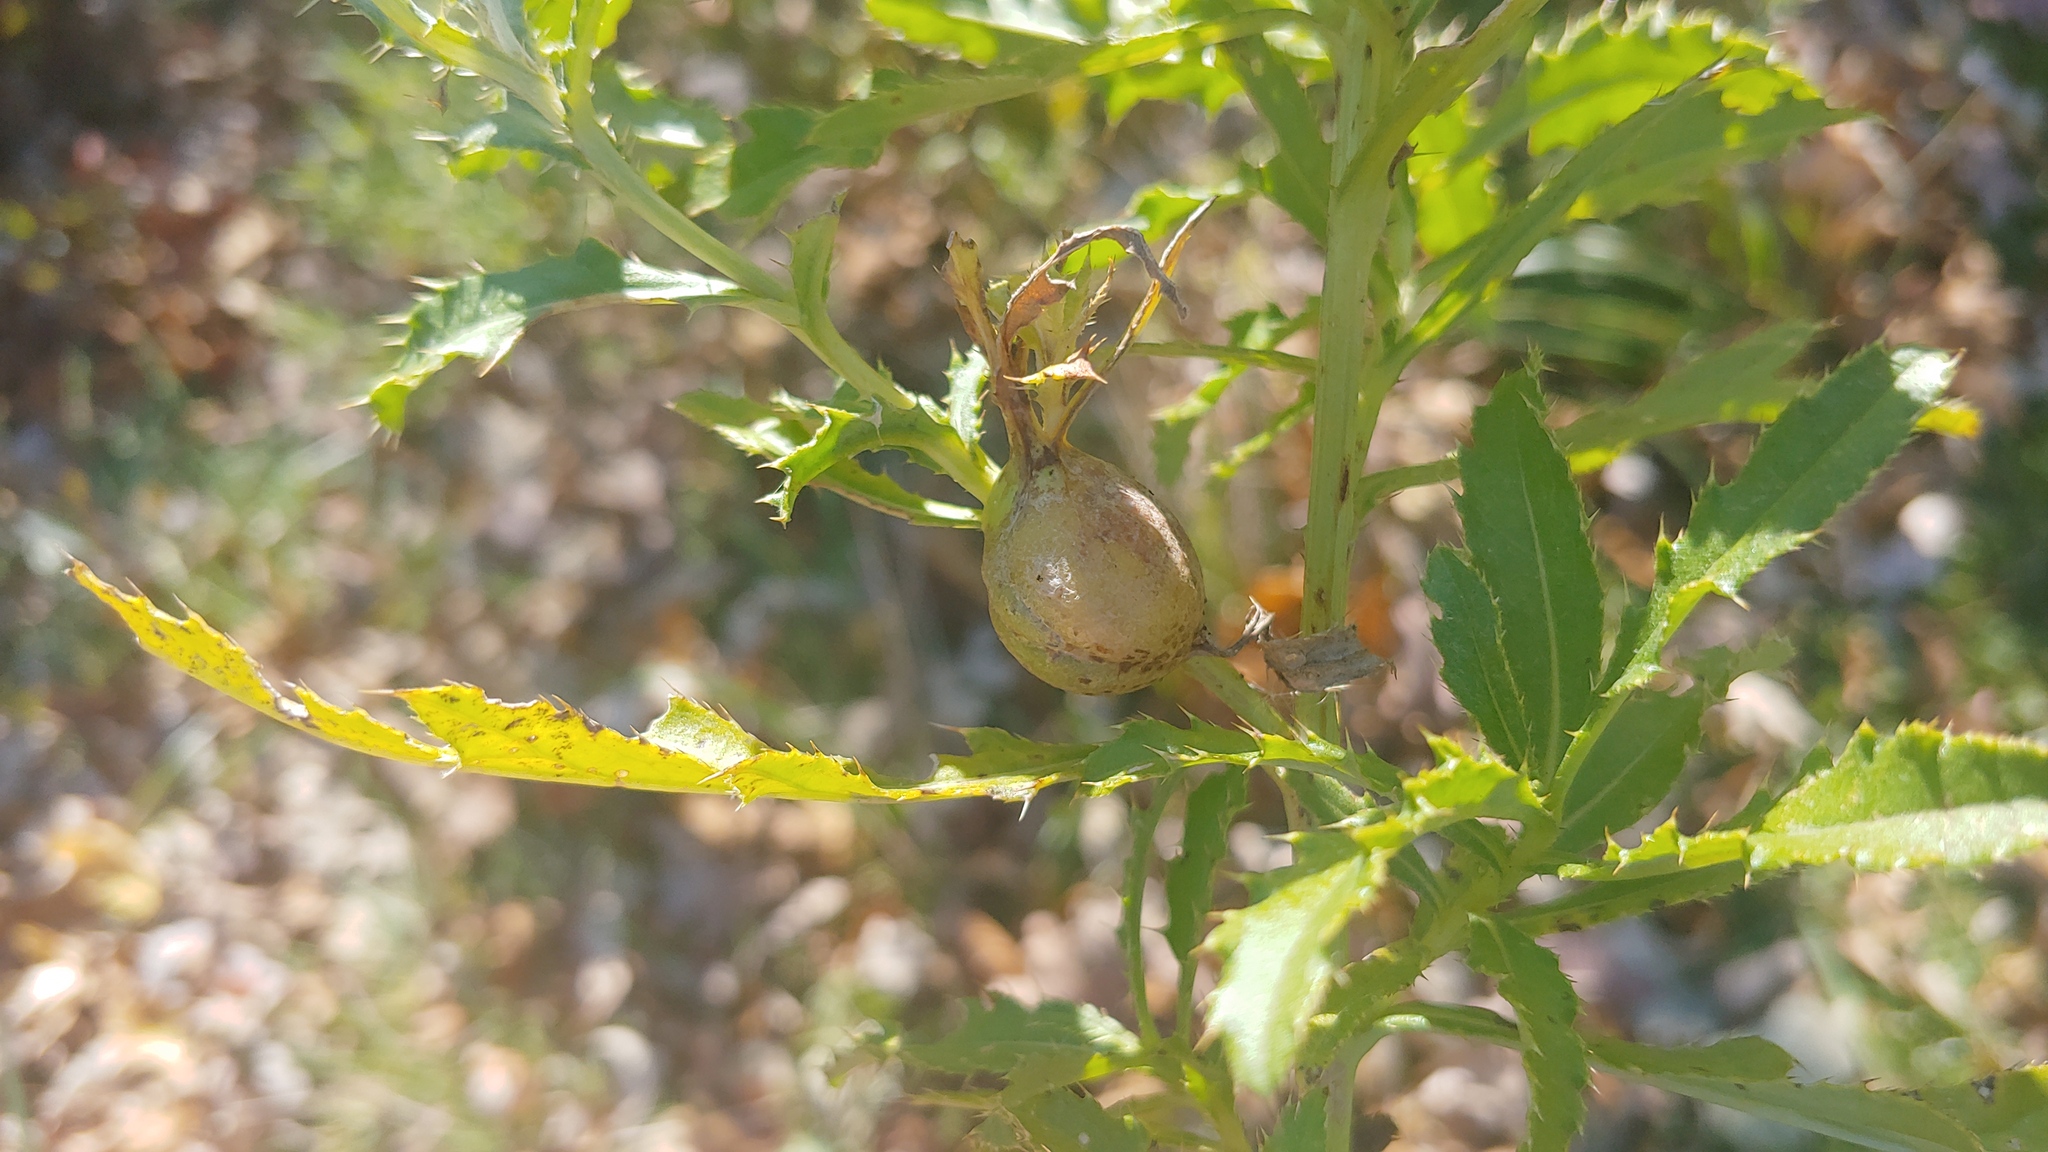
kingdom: Animalia
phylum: Arthropoda
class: Insecta
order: Diptera
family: Tephritidae
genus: Urophora
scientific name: Urophora cardui
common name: Fruit fly
